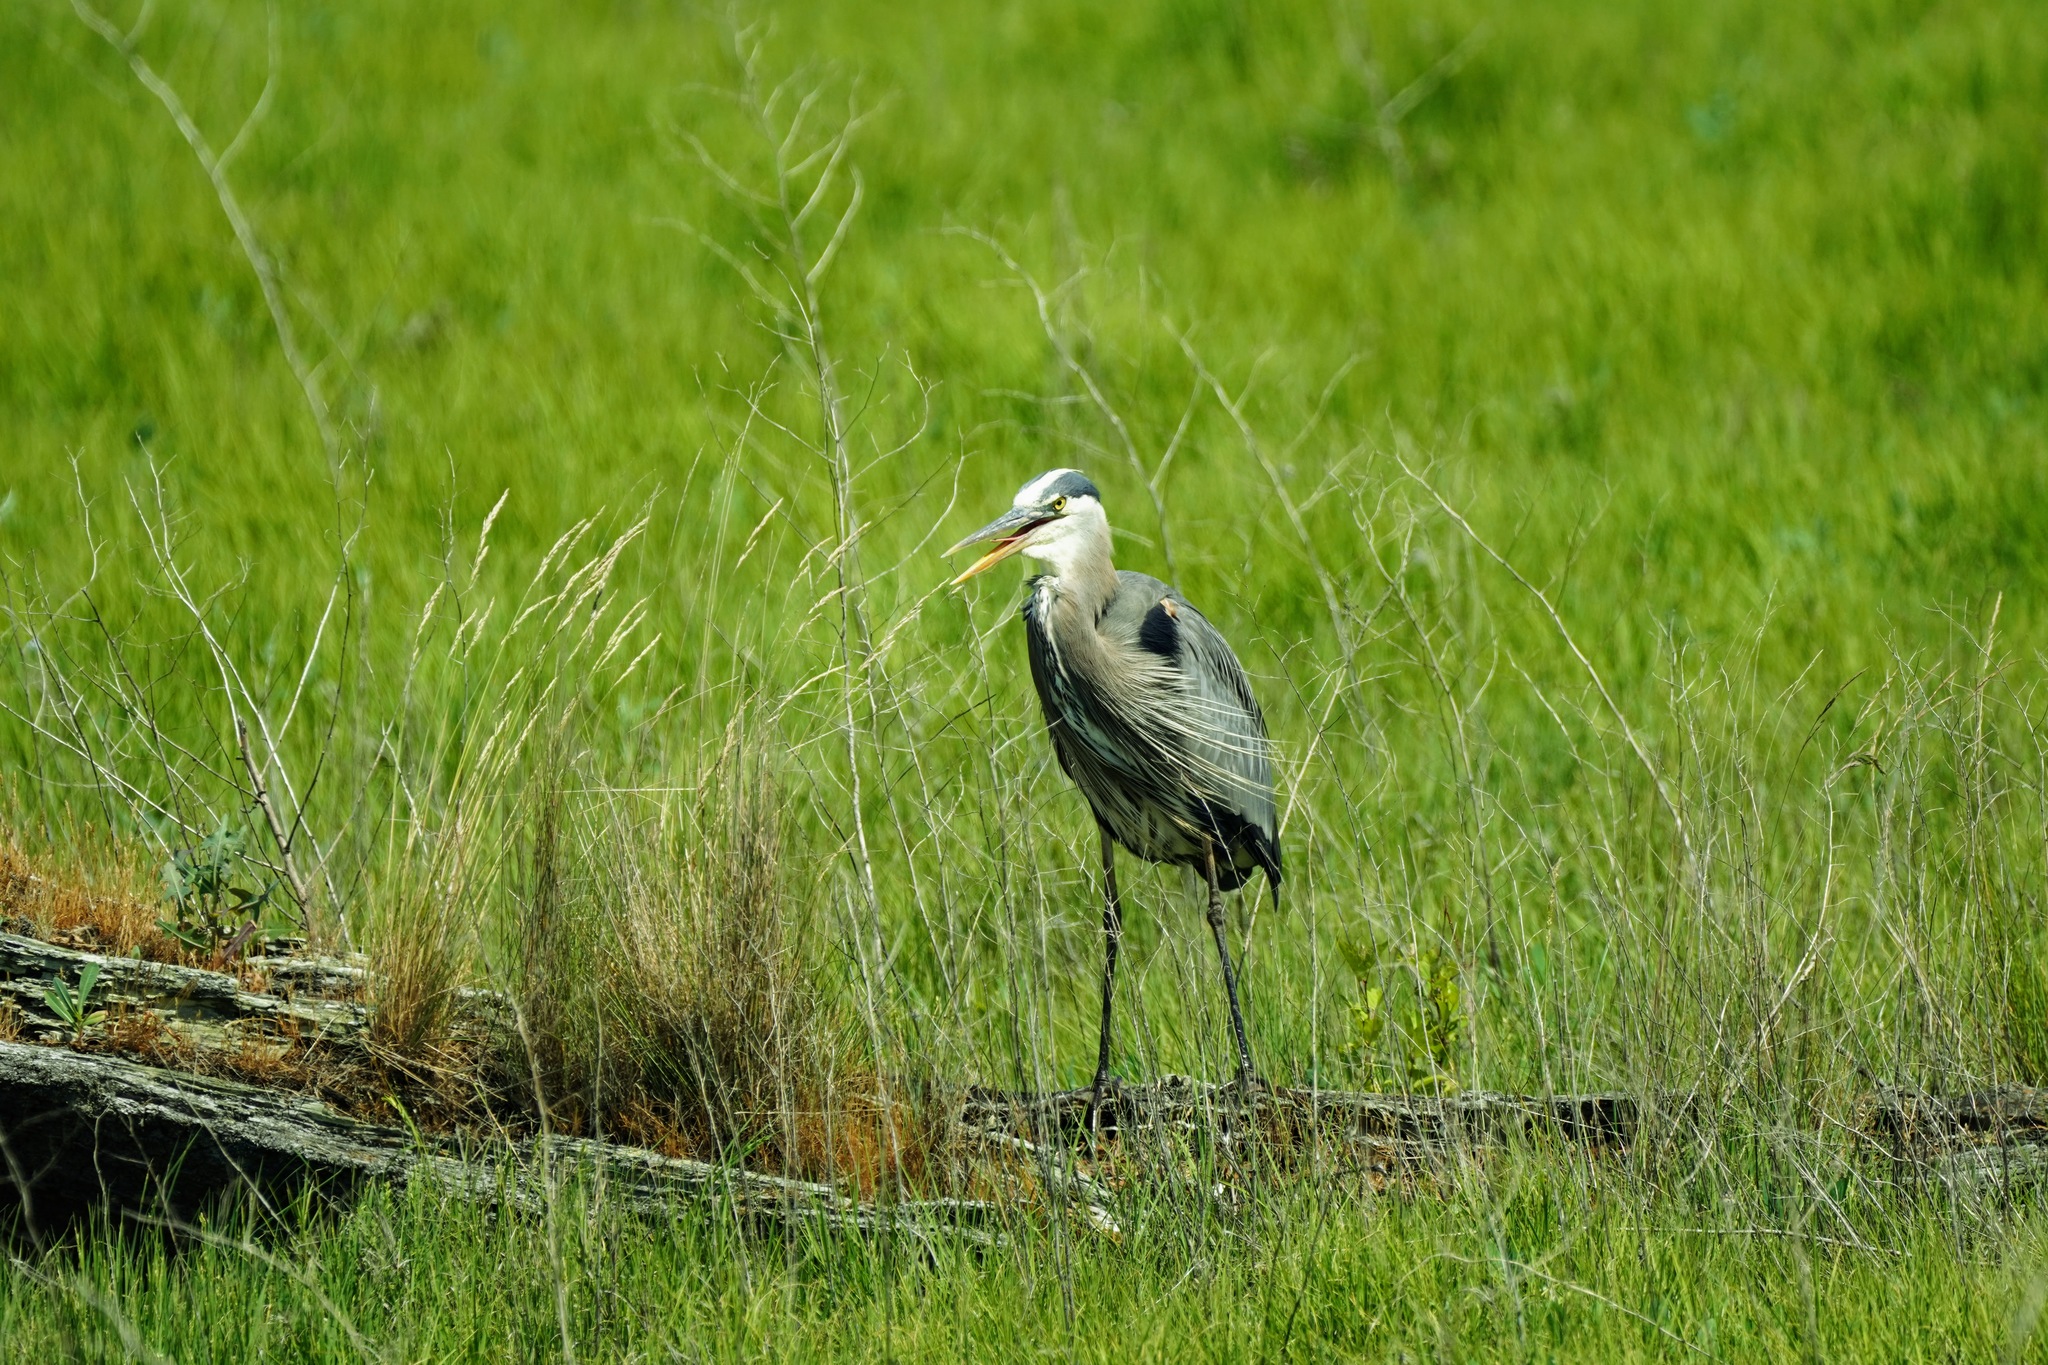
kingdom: Animalia
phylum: Chordata
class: Aves
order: Pelecaniformes
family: Ardeidae
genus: Ardea
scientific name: Ardea herodias
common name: Great blue heron
